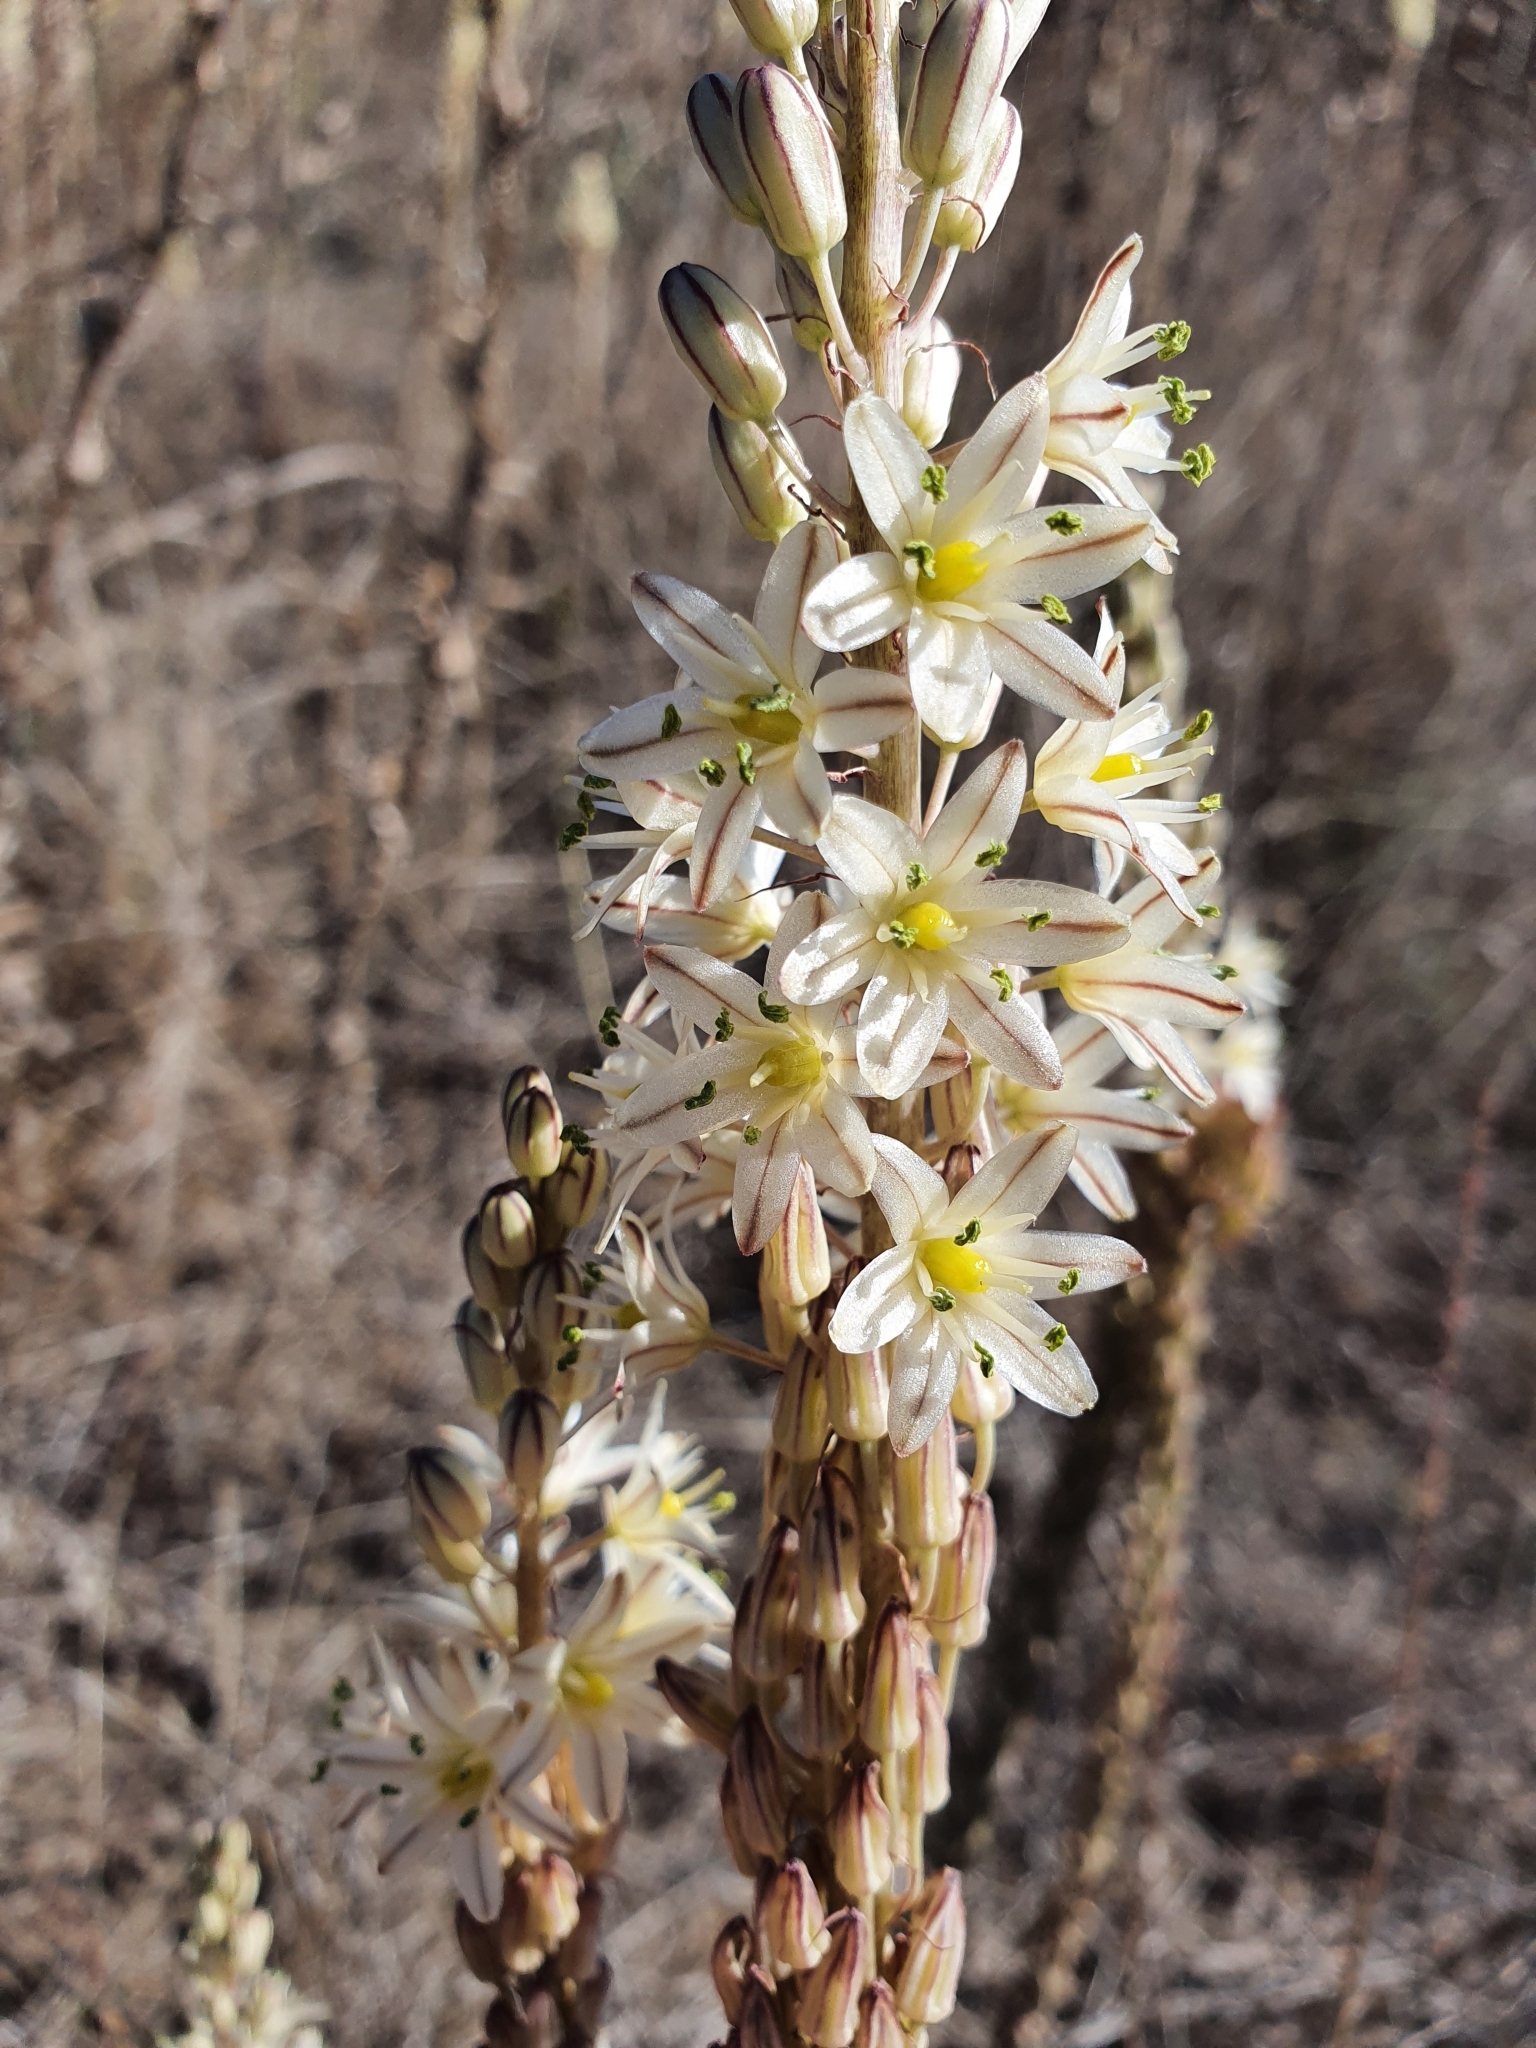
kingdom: Plantae
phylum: Tracheophyta
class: Liliopsida
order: Asparagales
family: Asparagaceae
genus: Drimia
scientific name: Drimia anthericoides
